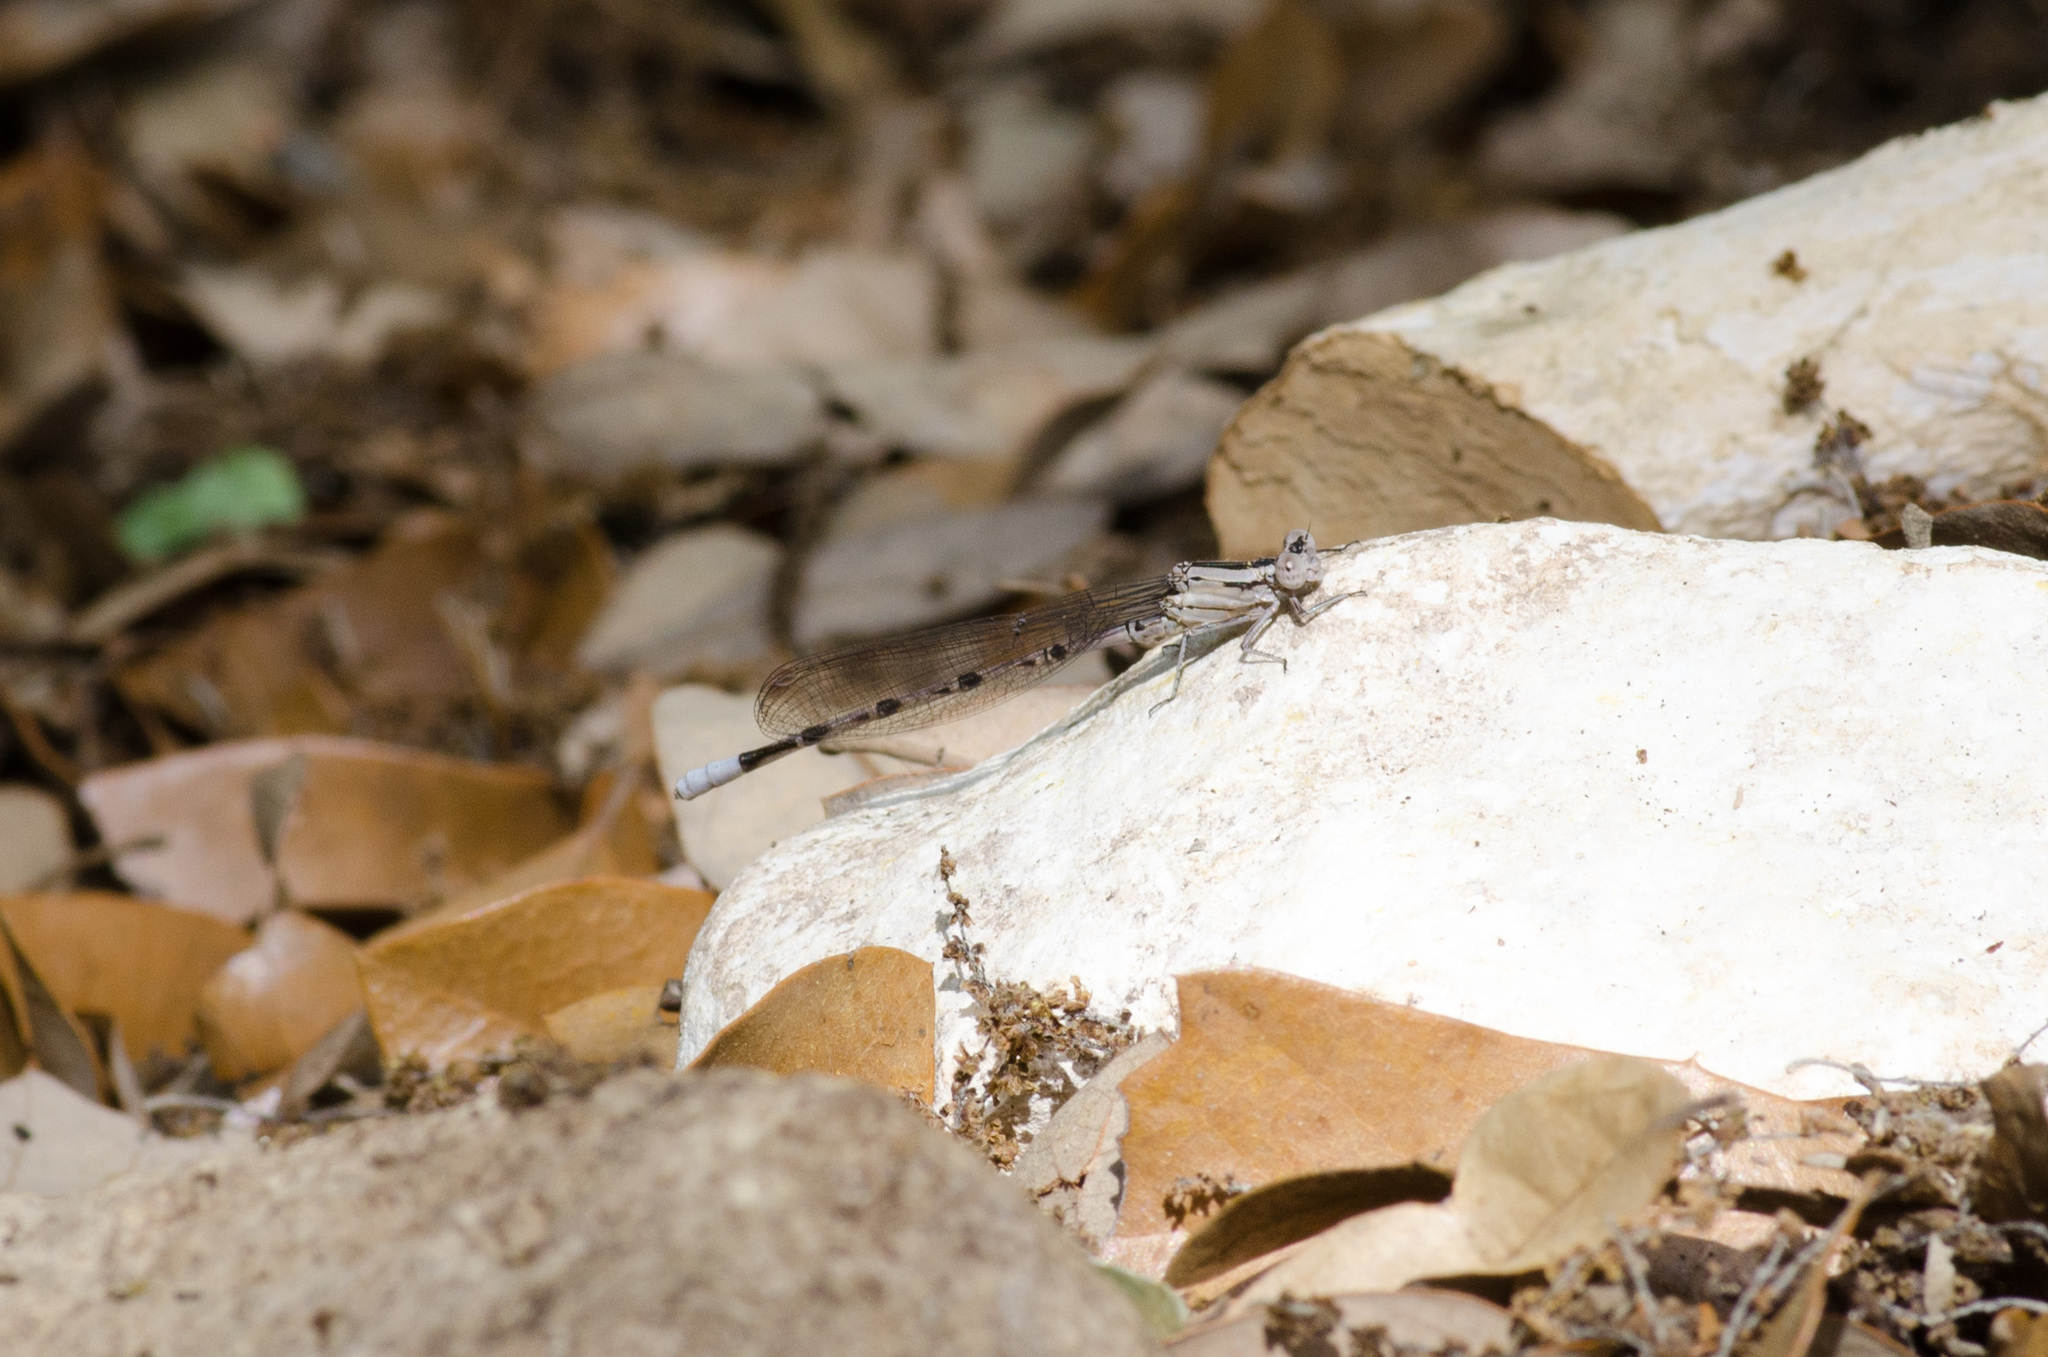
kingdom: Animalia
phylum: Arthropoda
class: Insecta
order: Odonata
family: Coenagrionidae
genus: Argia
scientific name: Argia funebris
